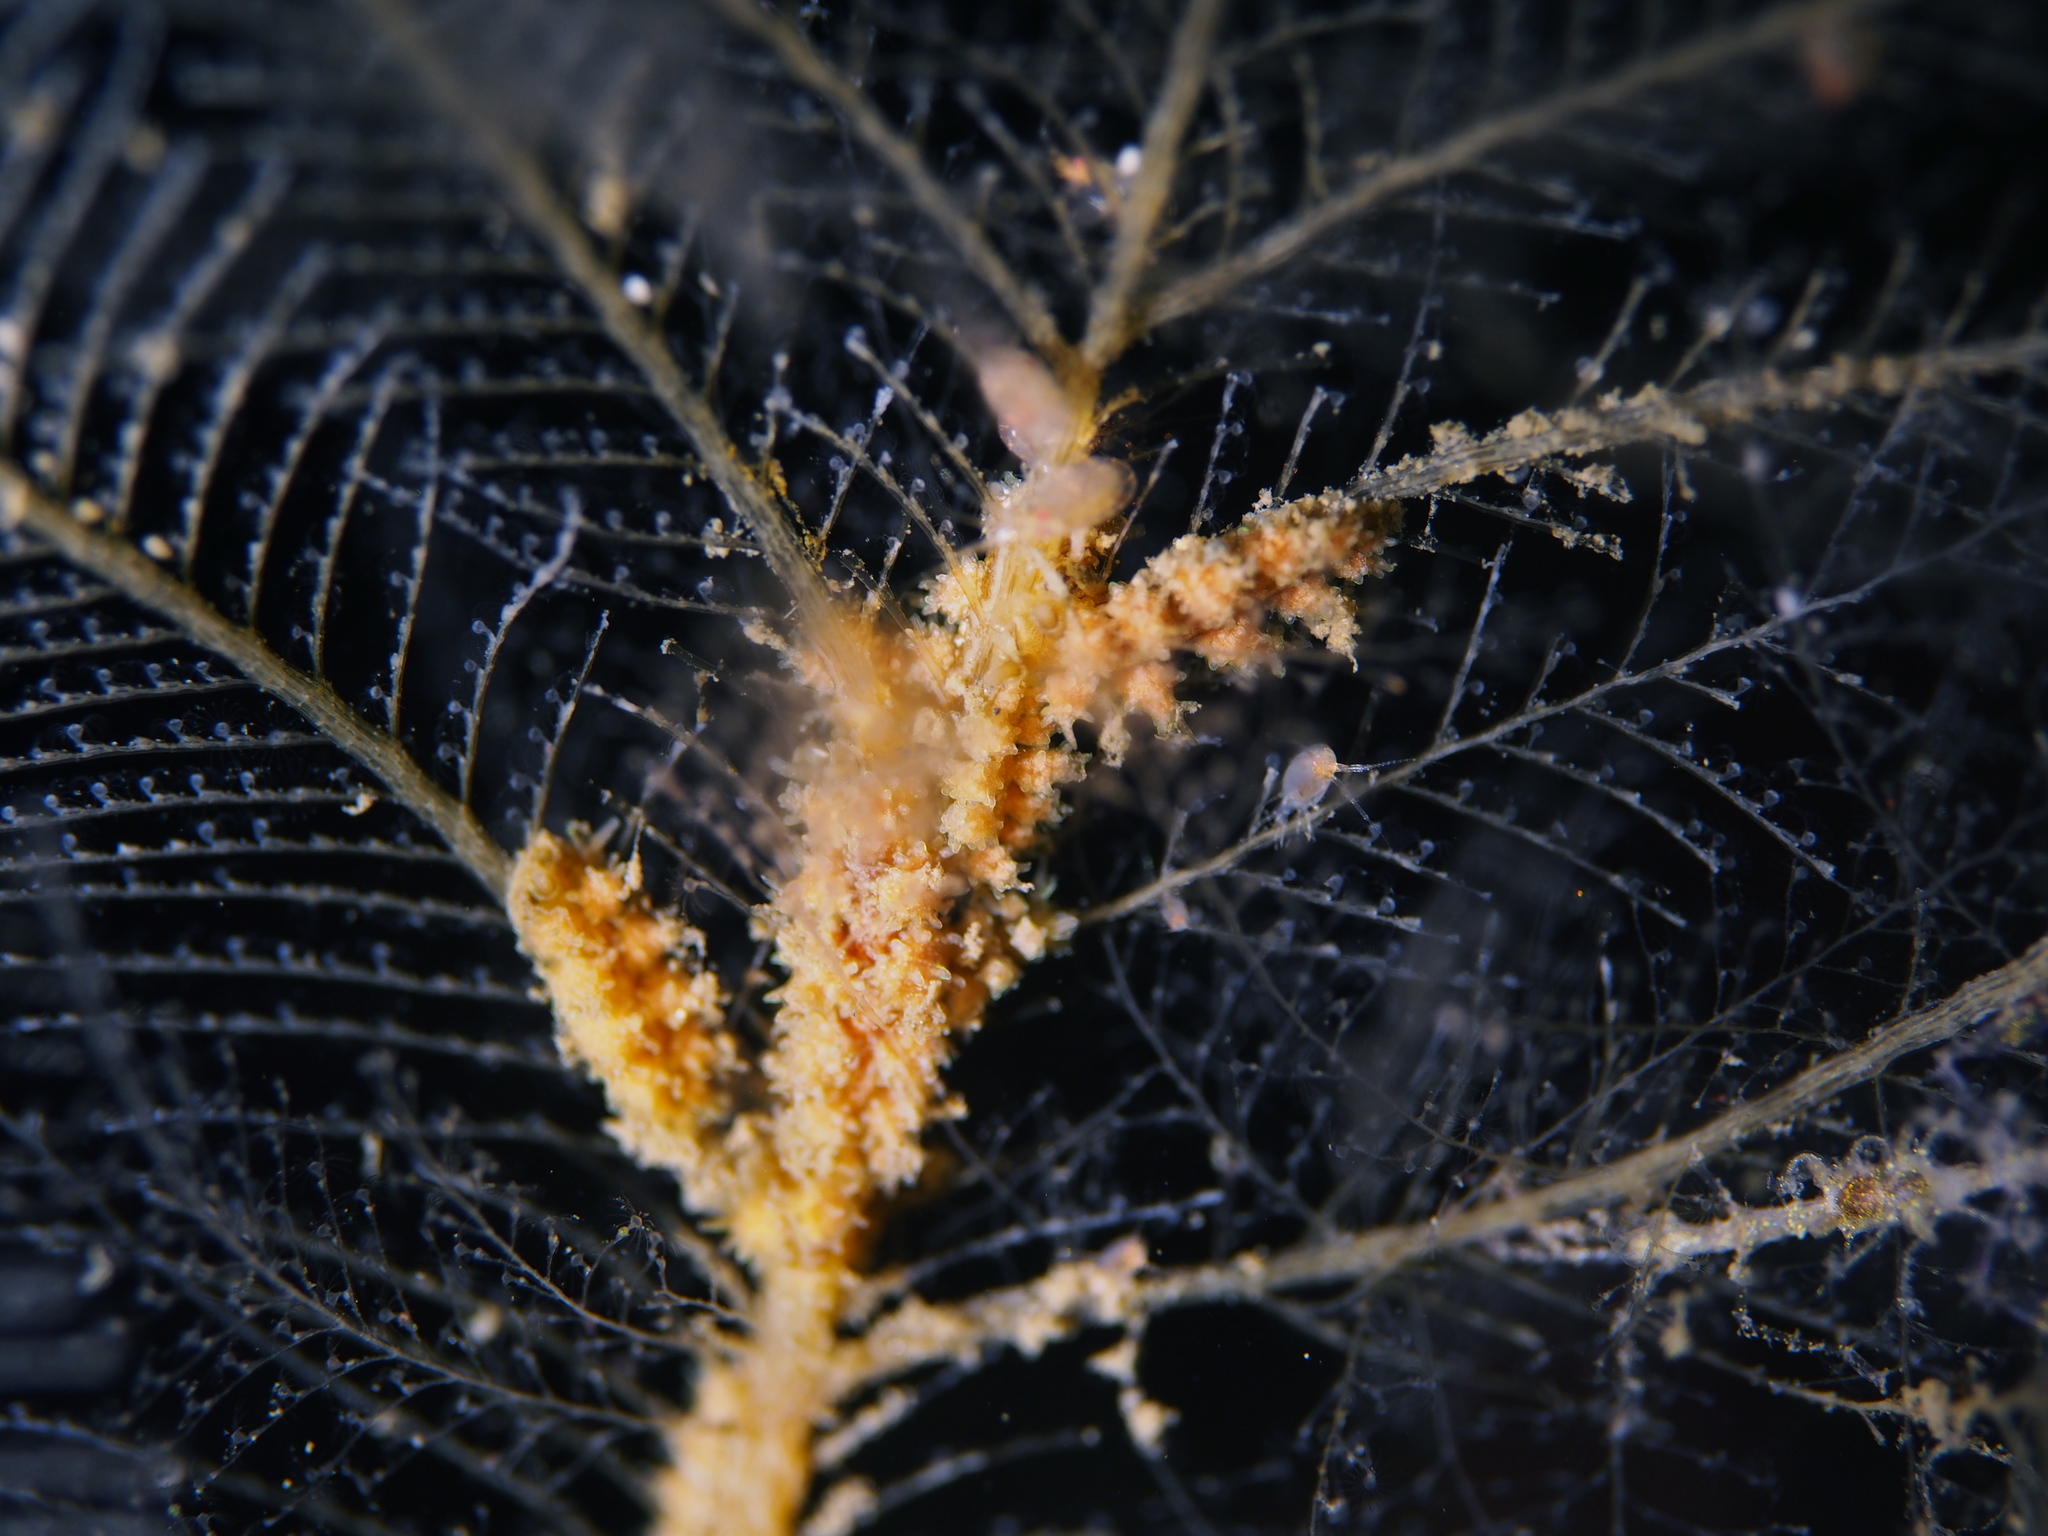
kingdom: Animalia
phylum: Mollusca
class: Gastropoda
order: Nudibranchia
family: Dotidae
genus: Doto
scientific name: Doto hystrix
